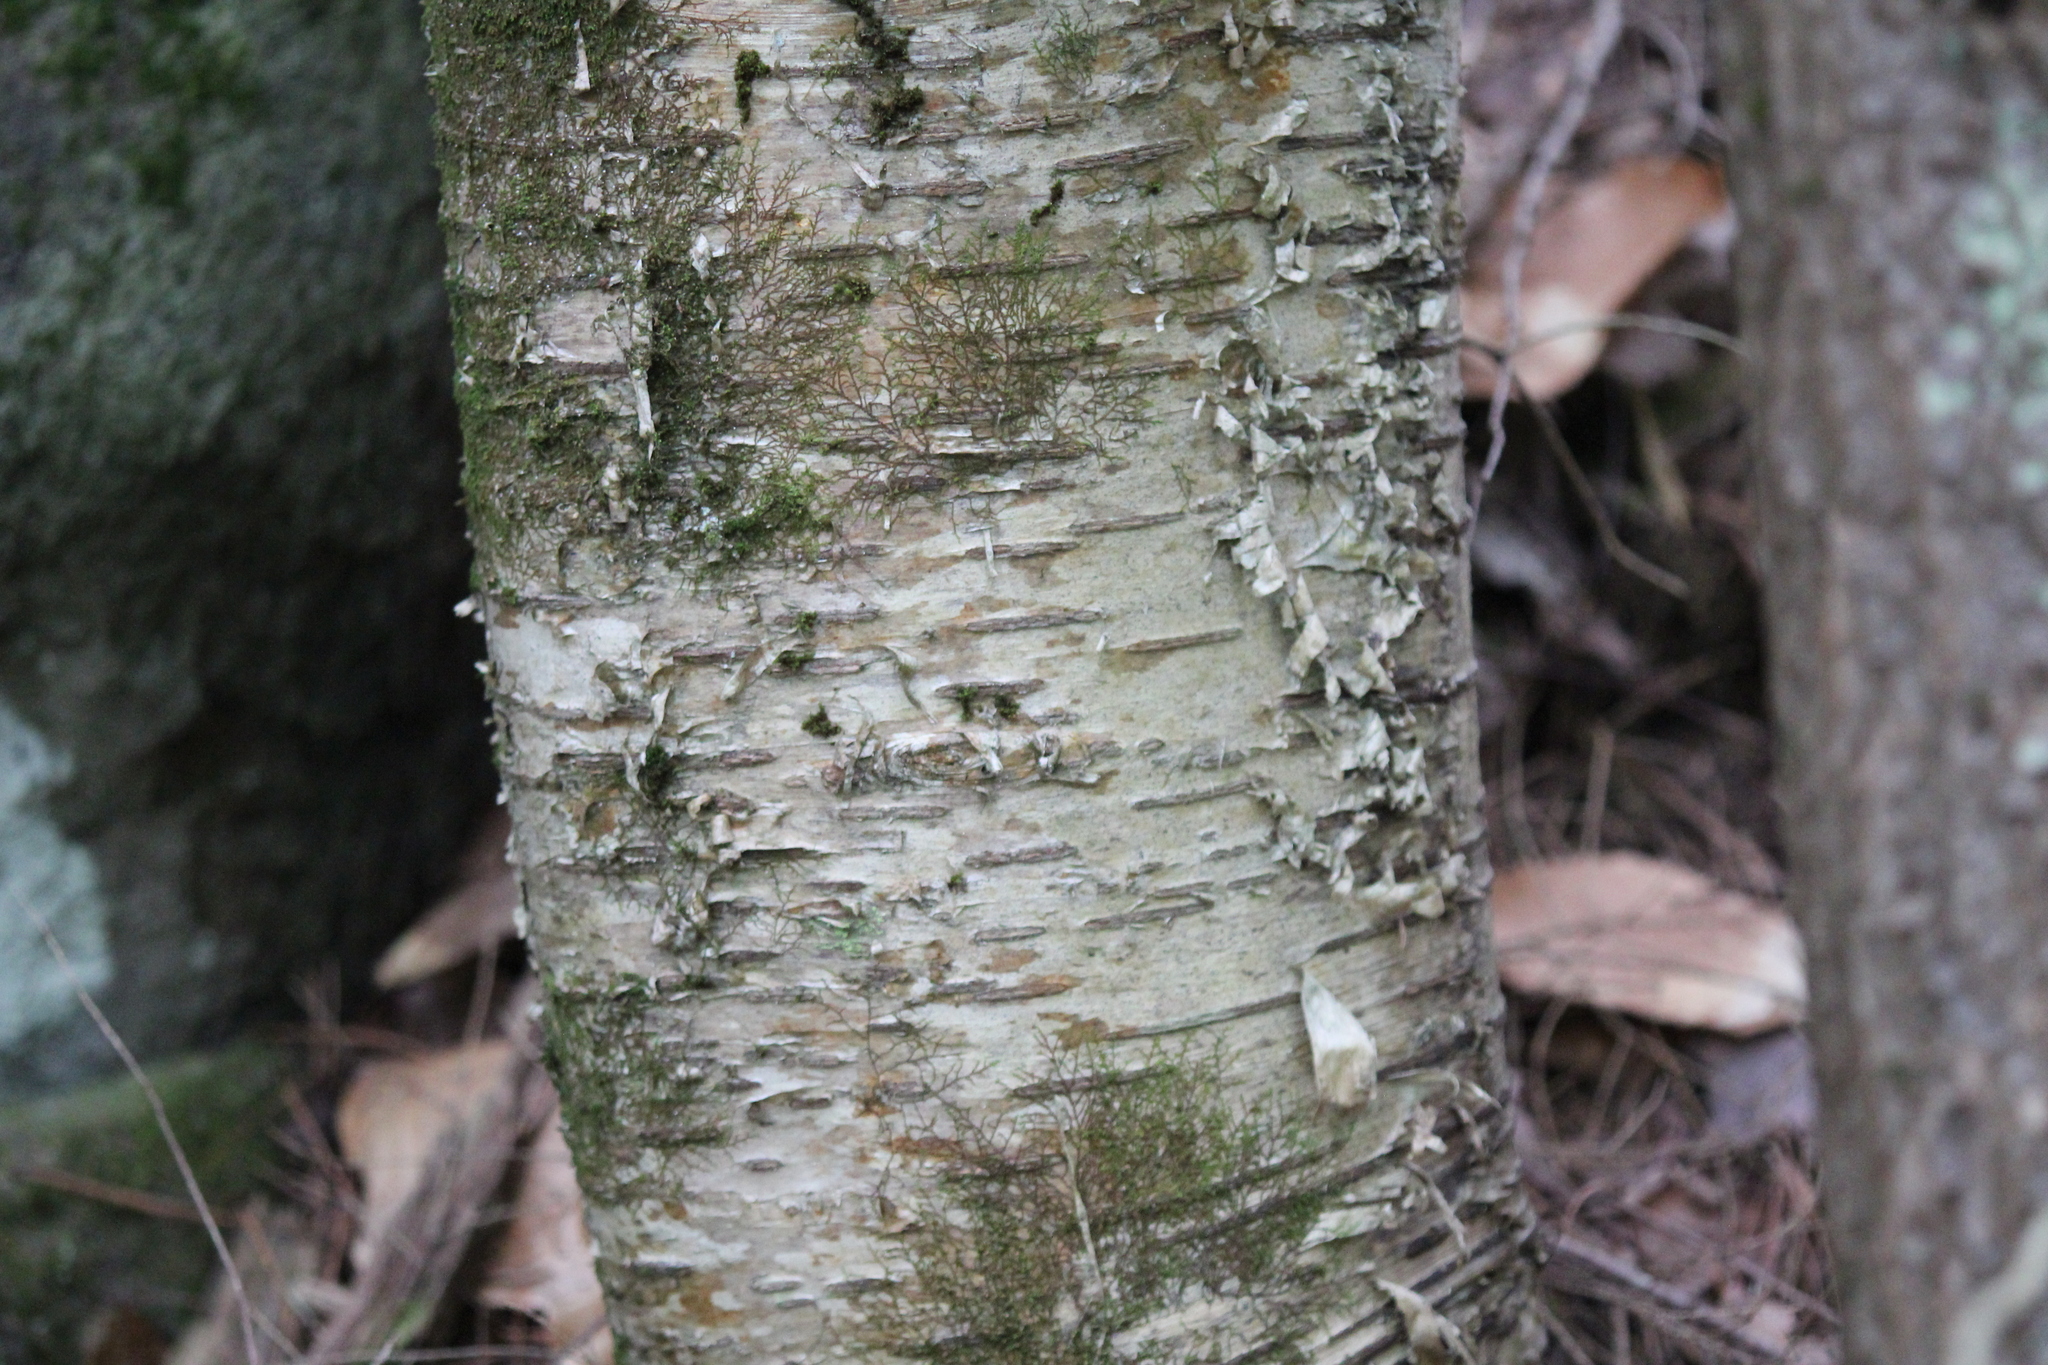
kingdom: Plantae
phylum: Tracheophyta
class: Magnoliopsida
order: Fagales
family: Betulaceae
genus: Betula
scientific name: Betula alleghaniensis
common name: Yellow birch
